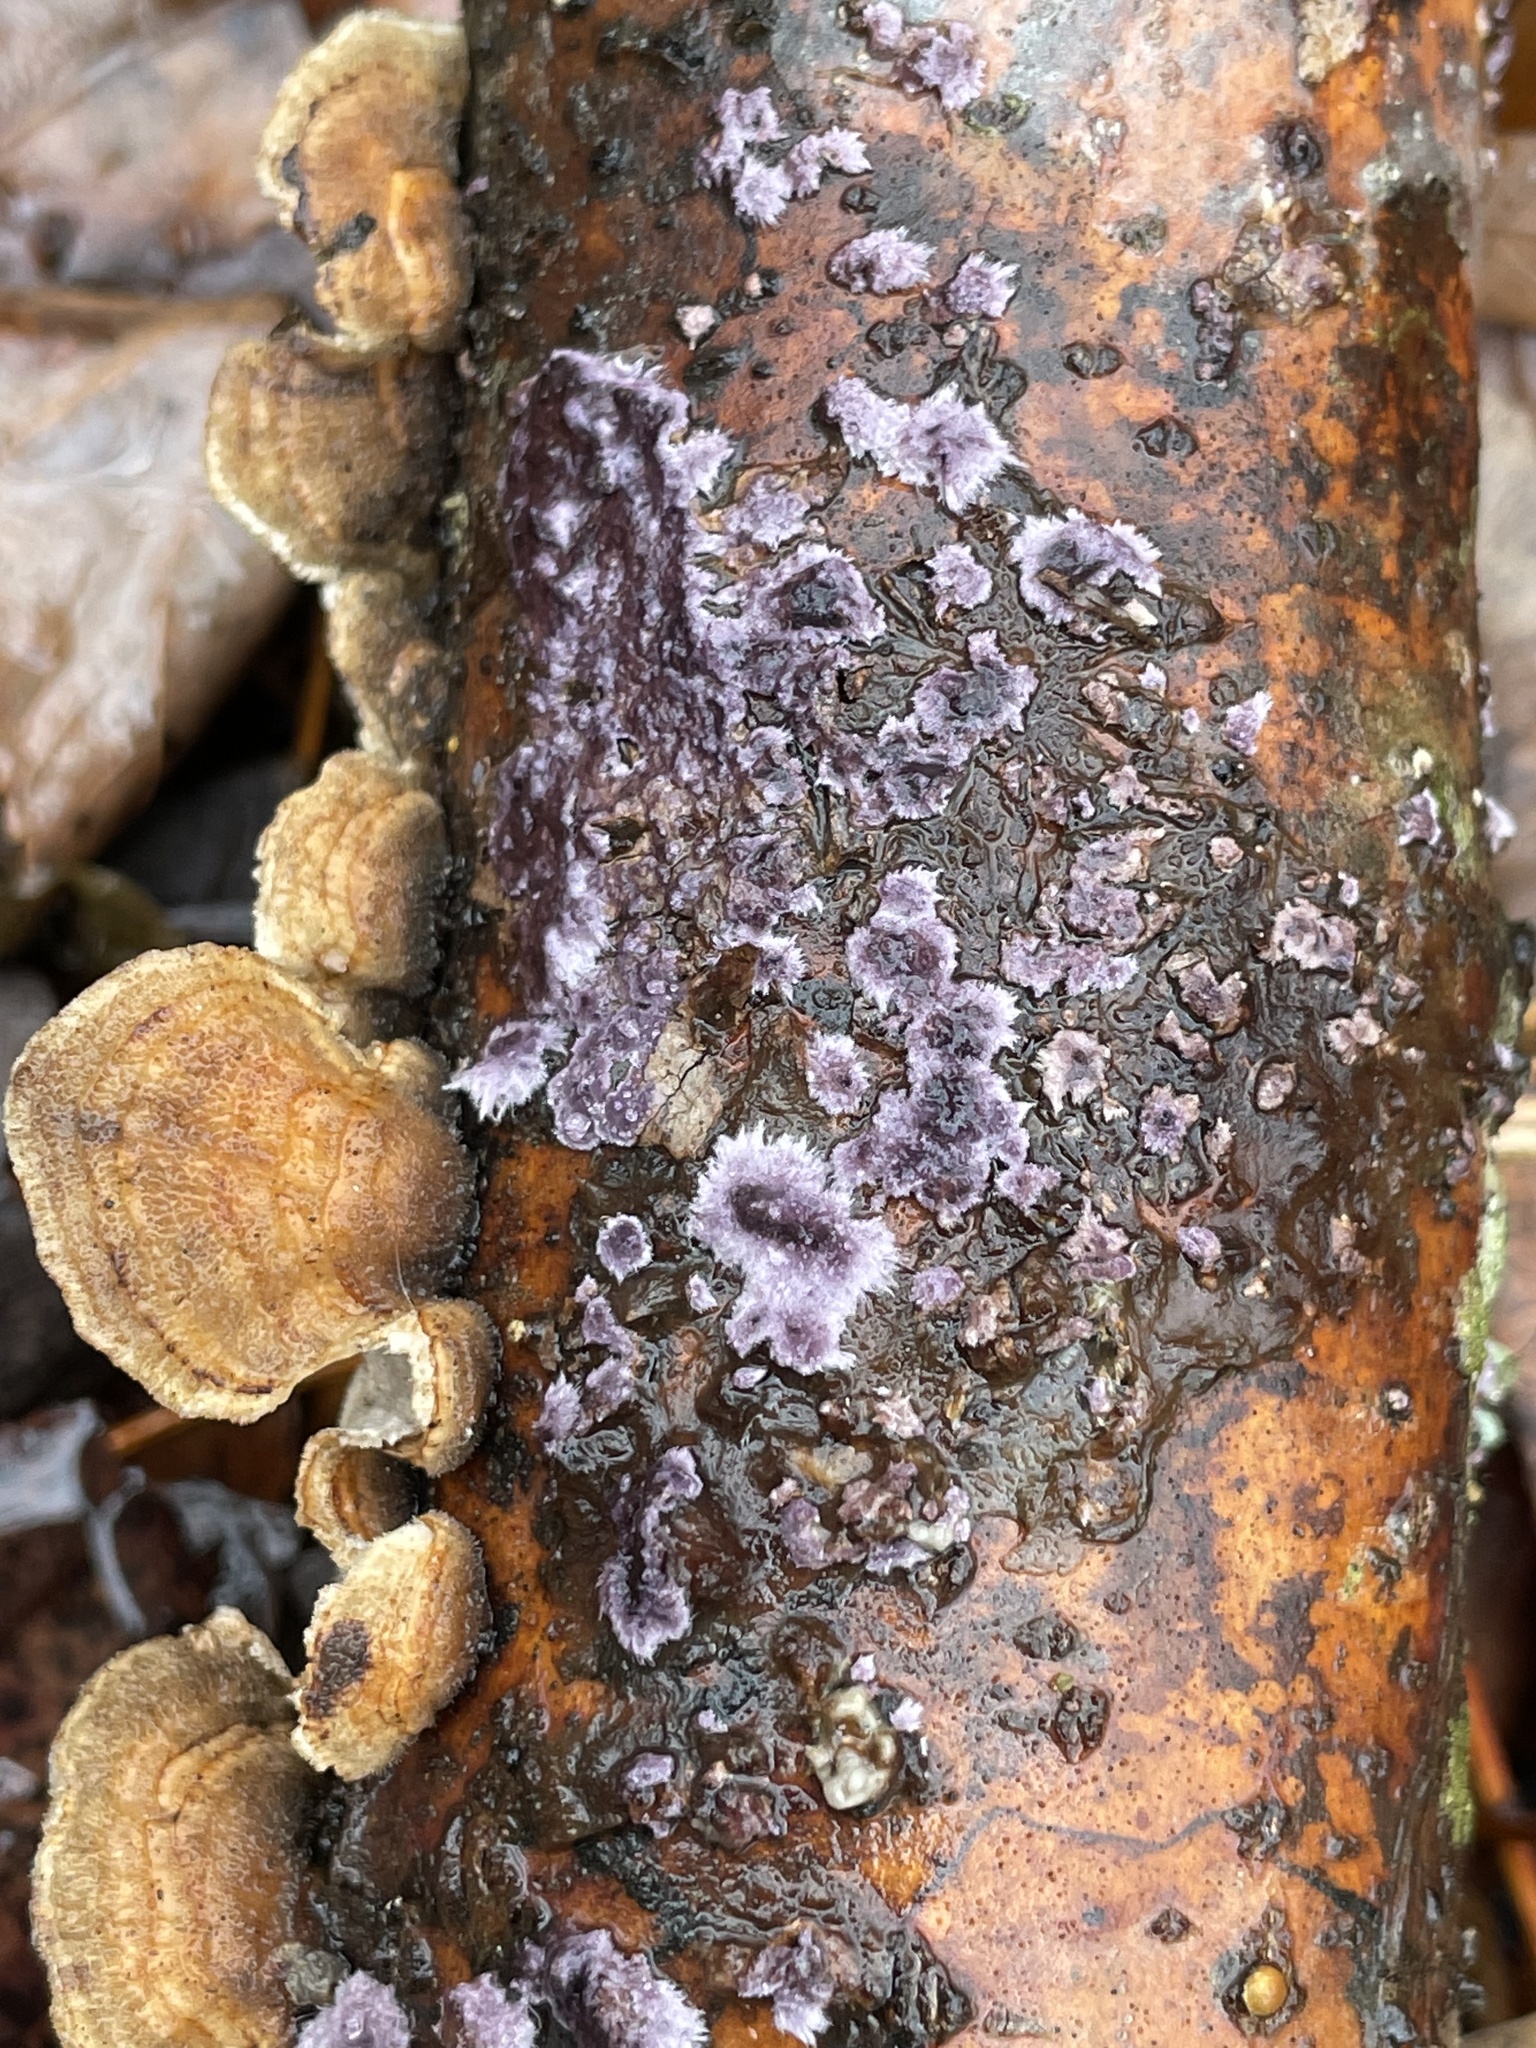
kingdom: Fungi
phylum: Basidiomycota
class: Agaricomycetes
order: Polyporales
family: Phanerochaetaceae
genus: Phlebiopsis
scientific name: Phlebiopsis crassa
